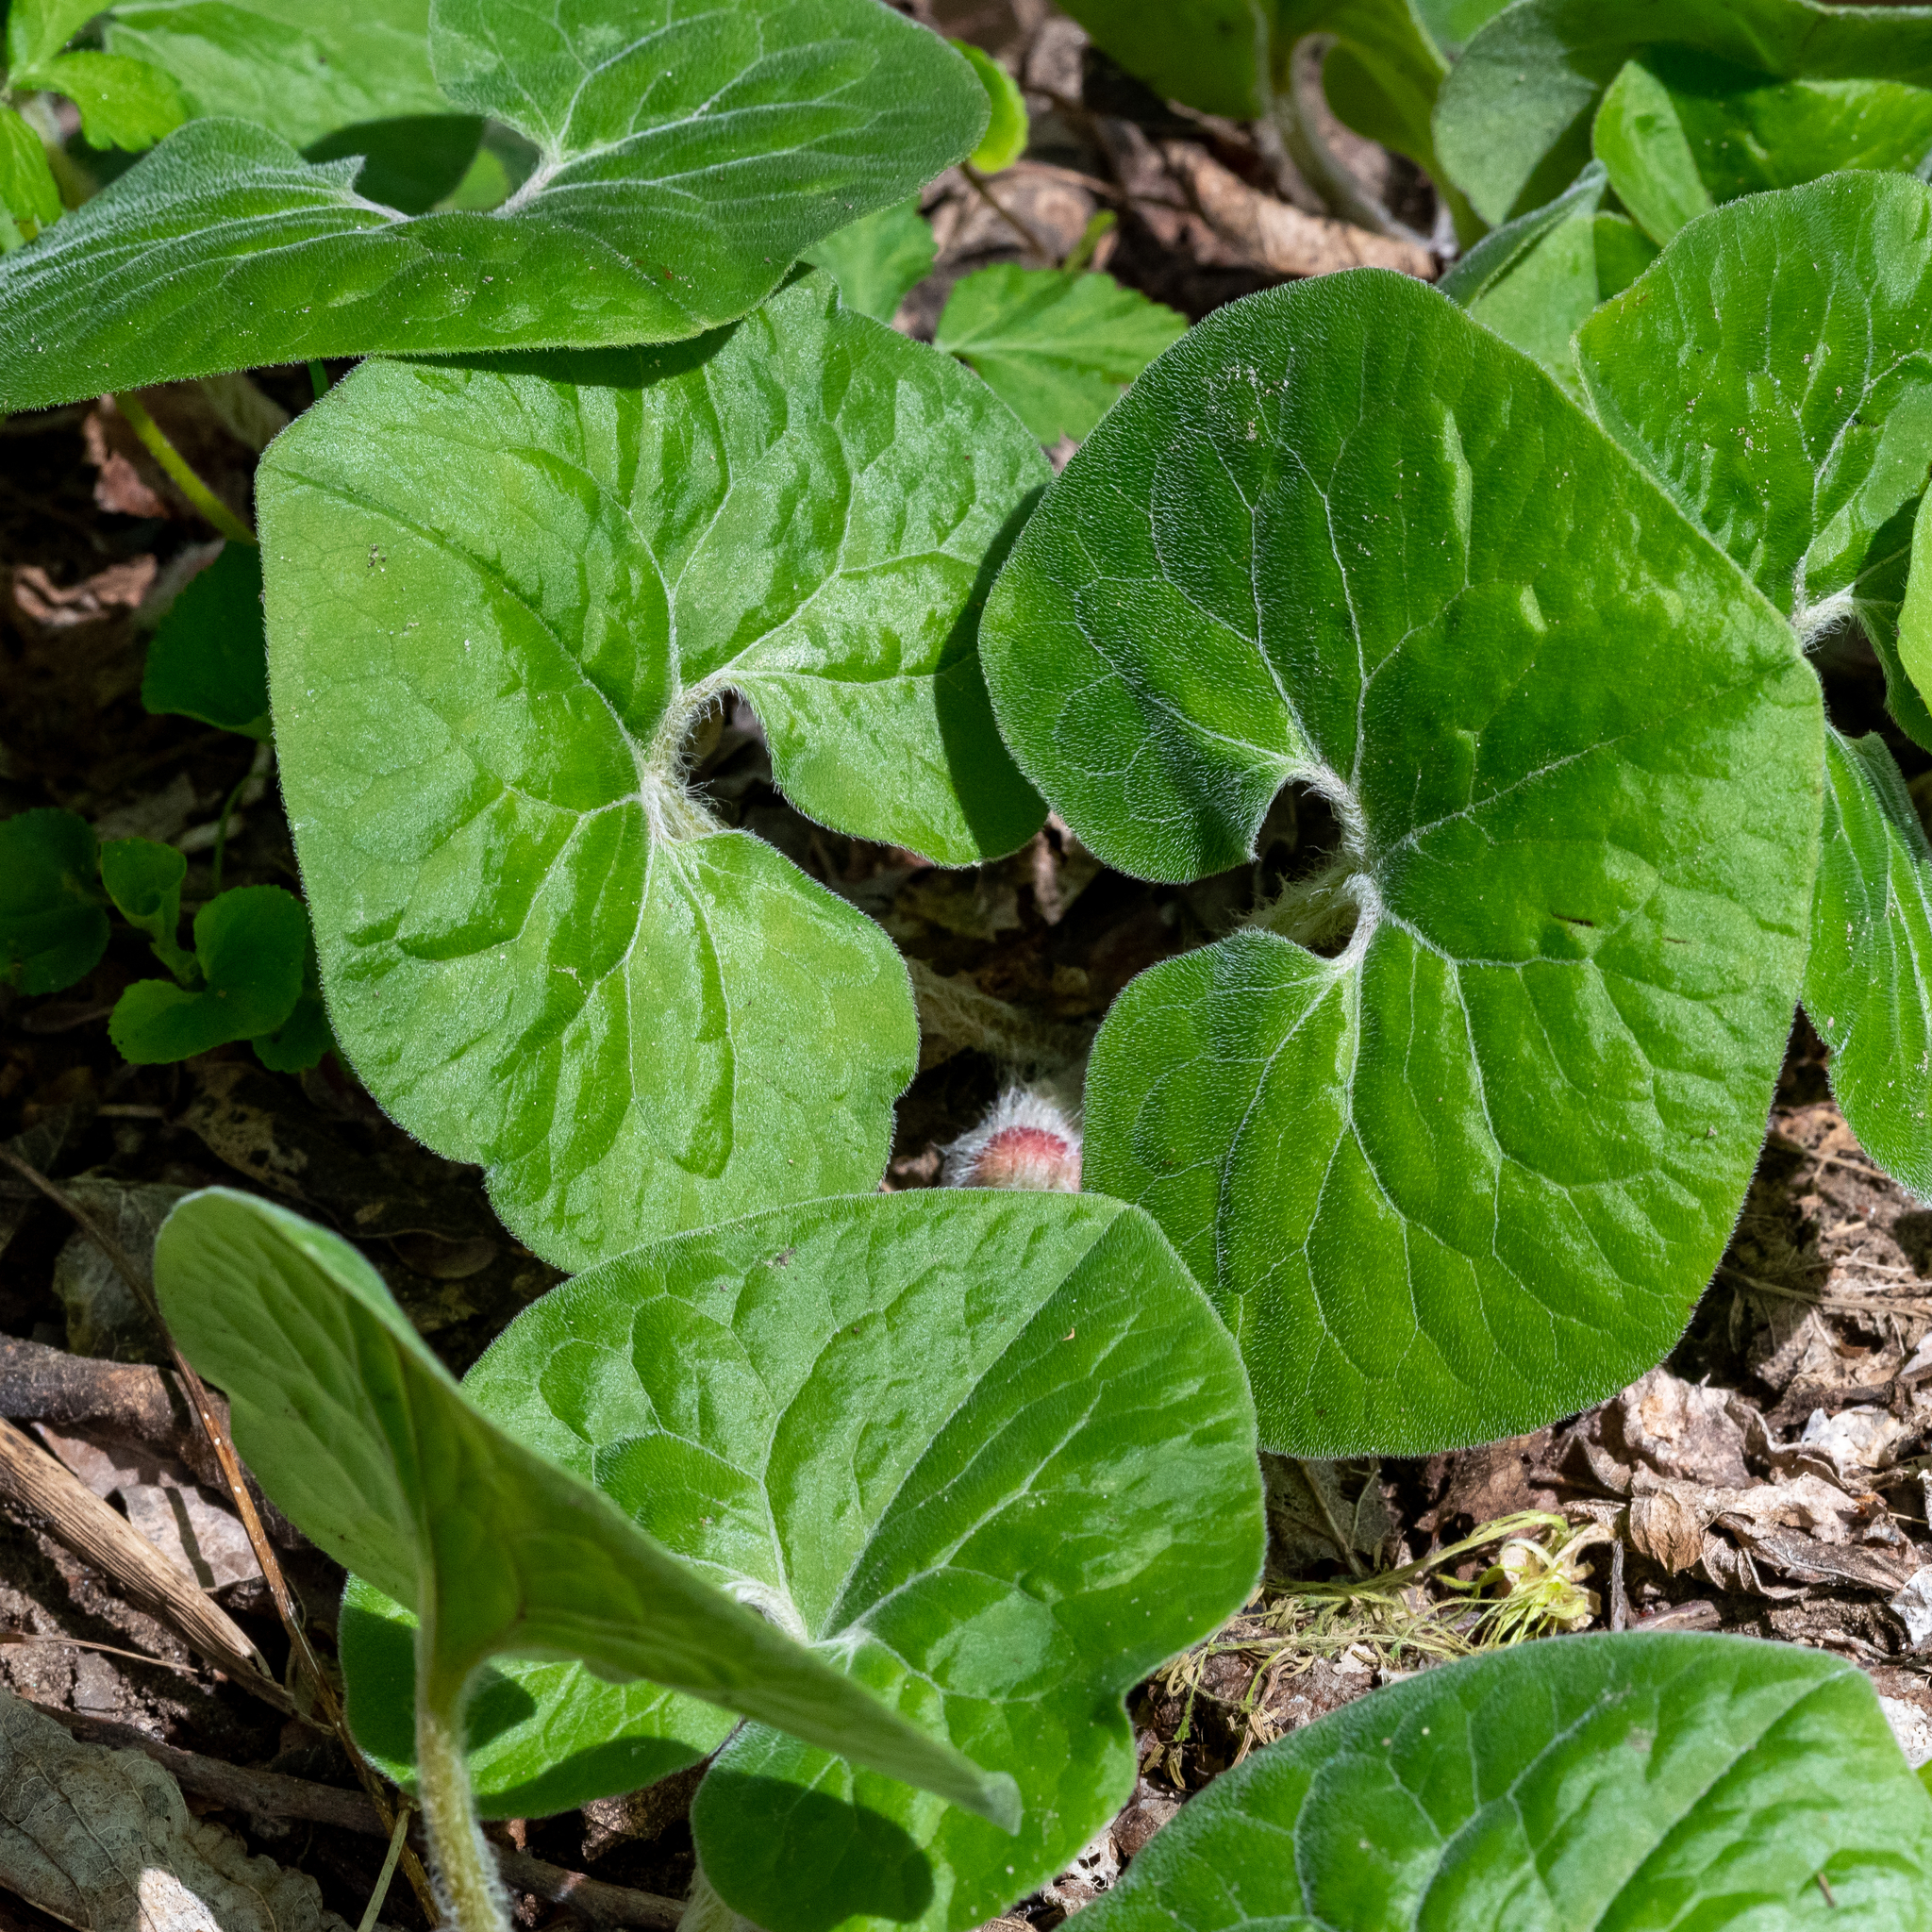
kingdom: Plantae
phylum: Tracheophyta
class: Magnoliopsida
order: Piperales
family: Aristolochiaceae
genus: Asarum
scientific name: Asarum canadense
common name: Wild ginger
